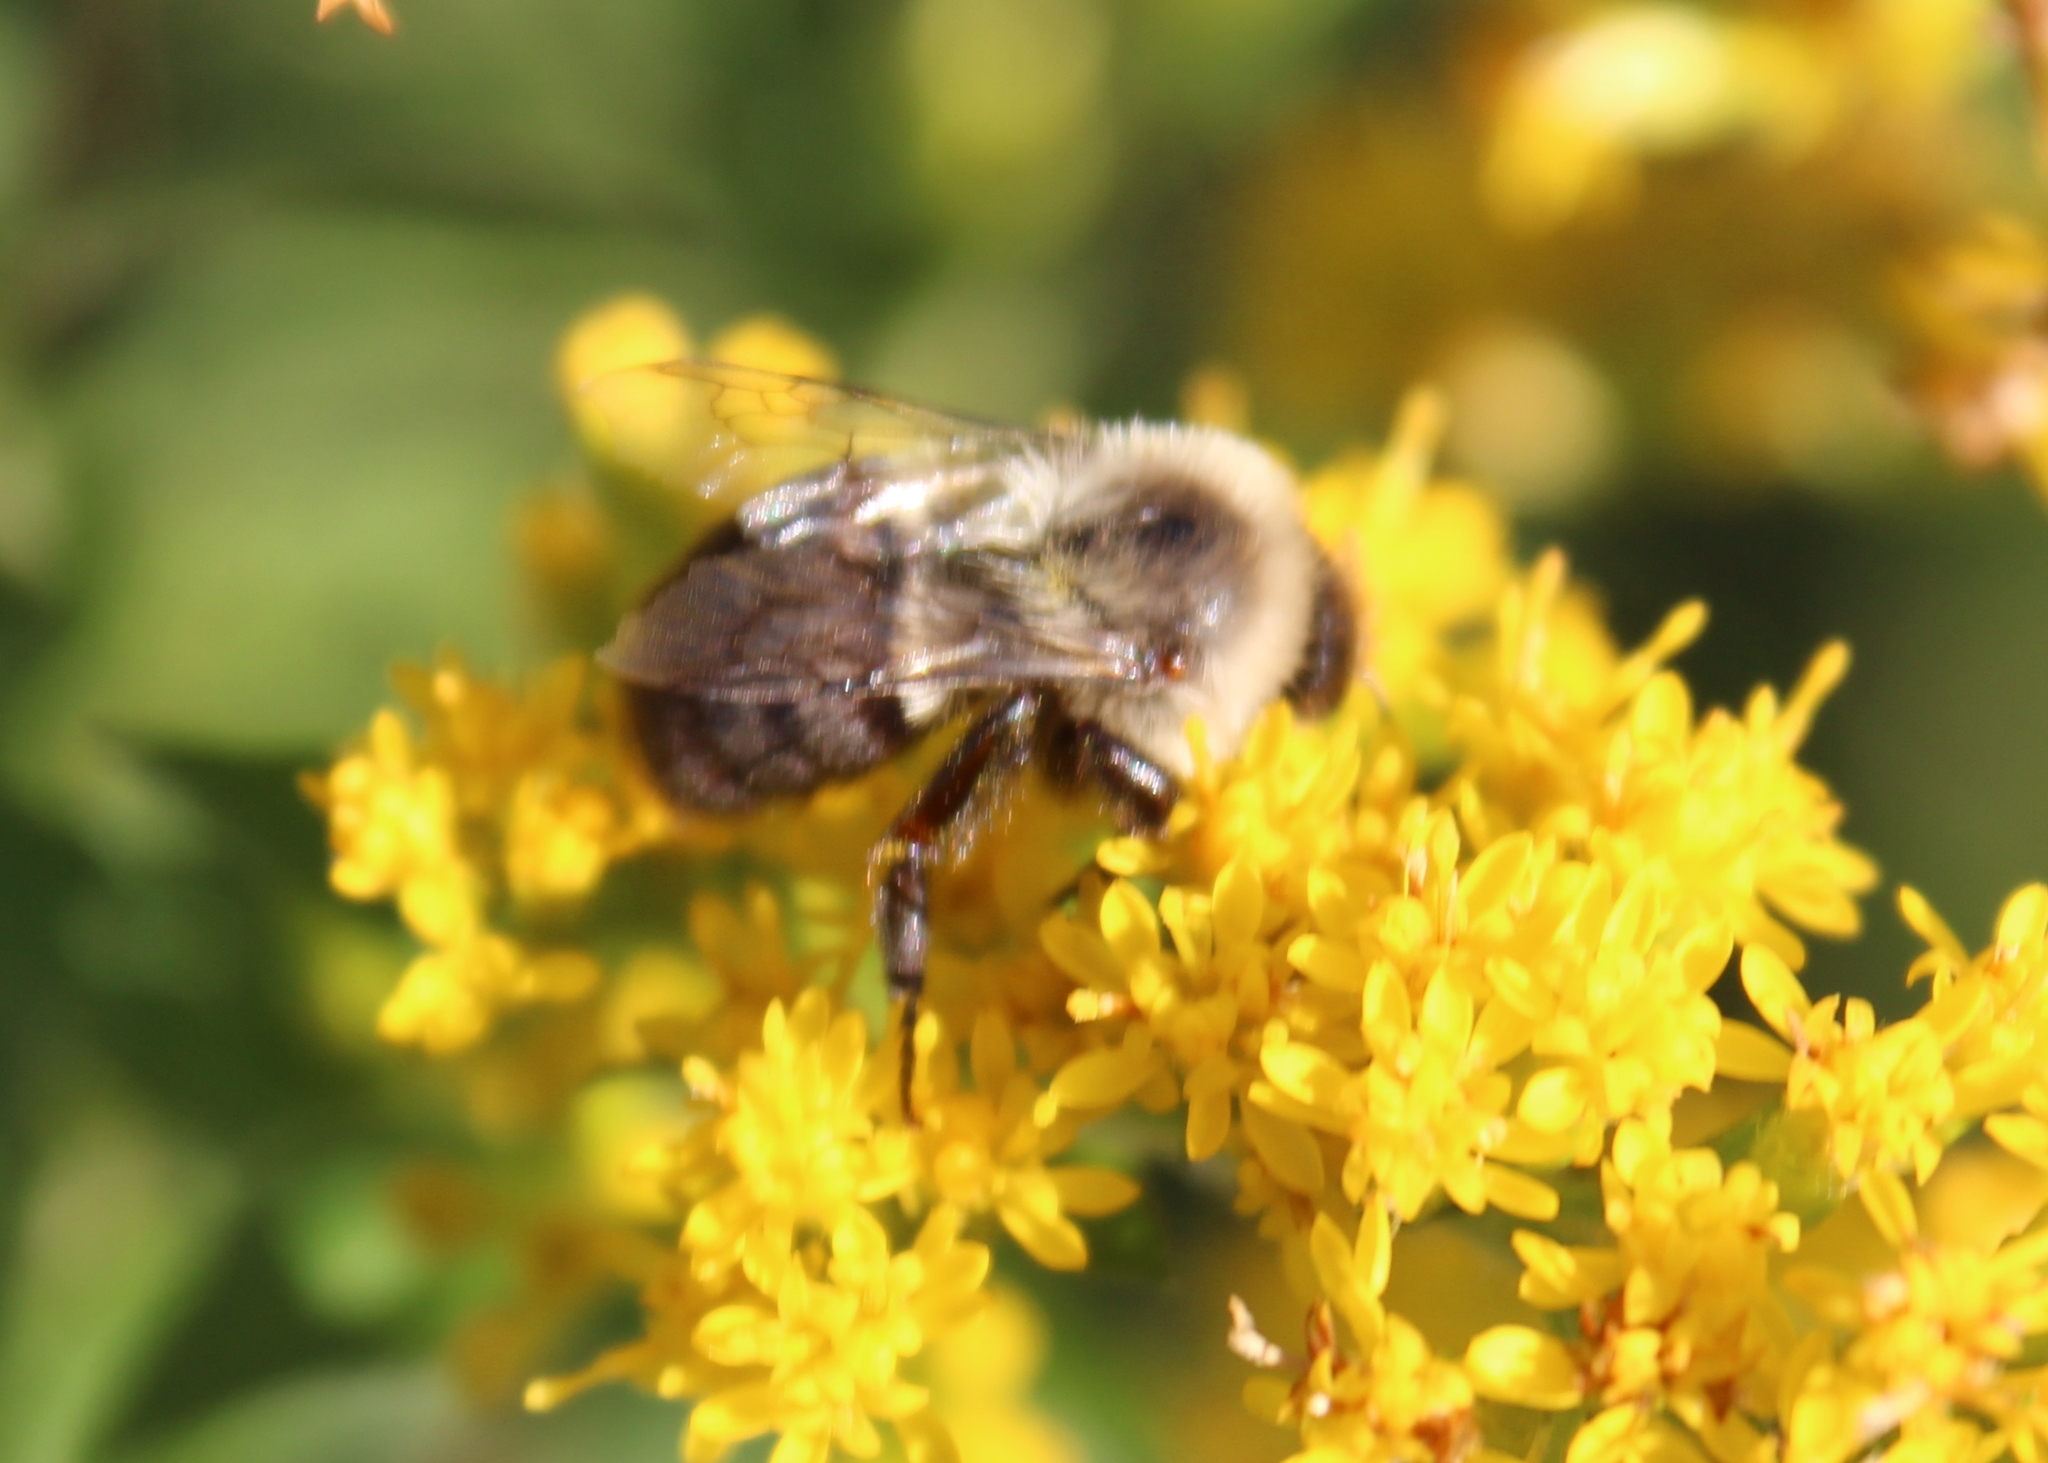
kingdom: Animalia
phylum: Arthropoda
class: Insecta
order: Hymenoptera
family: Apidae
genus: Bombus
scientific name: Bombus impatiens
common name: Common eastern bumble bee
